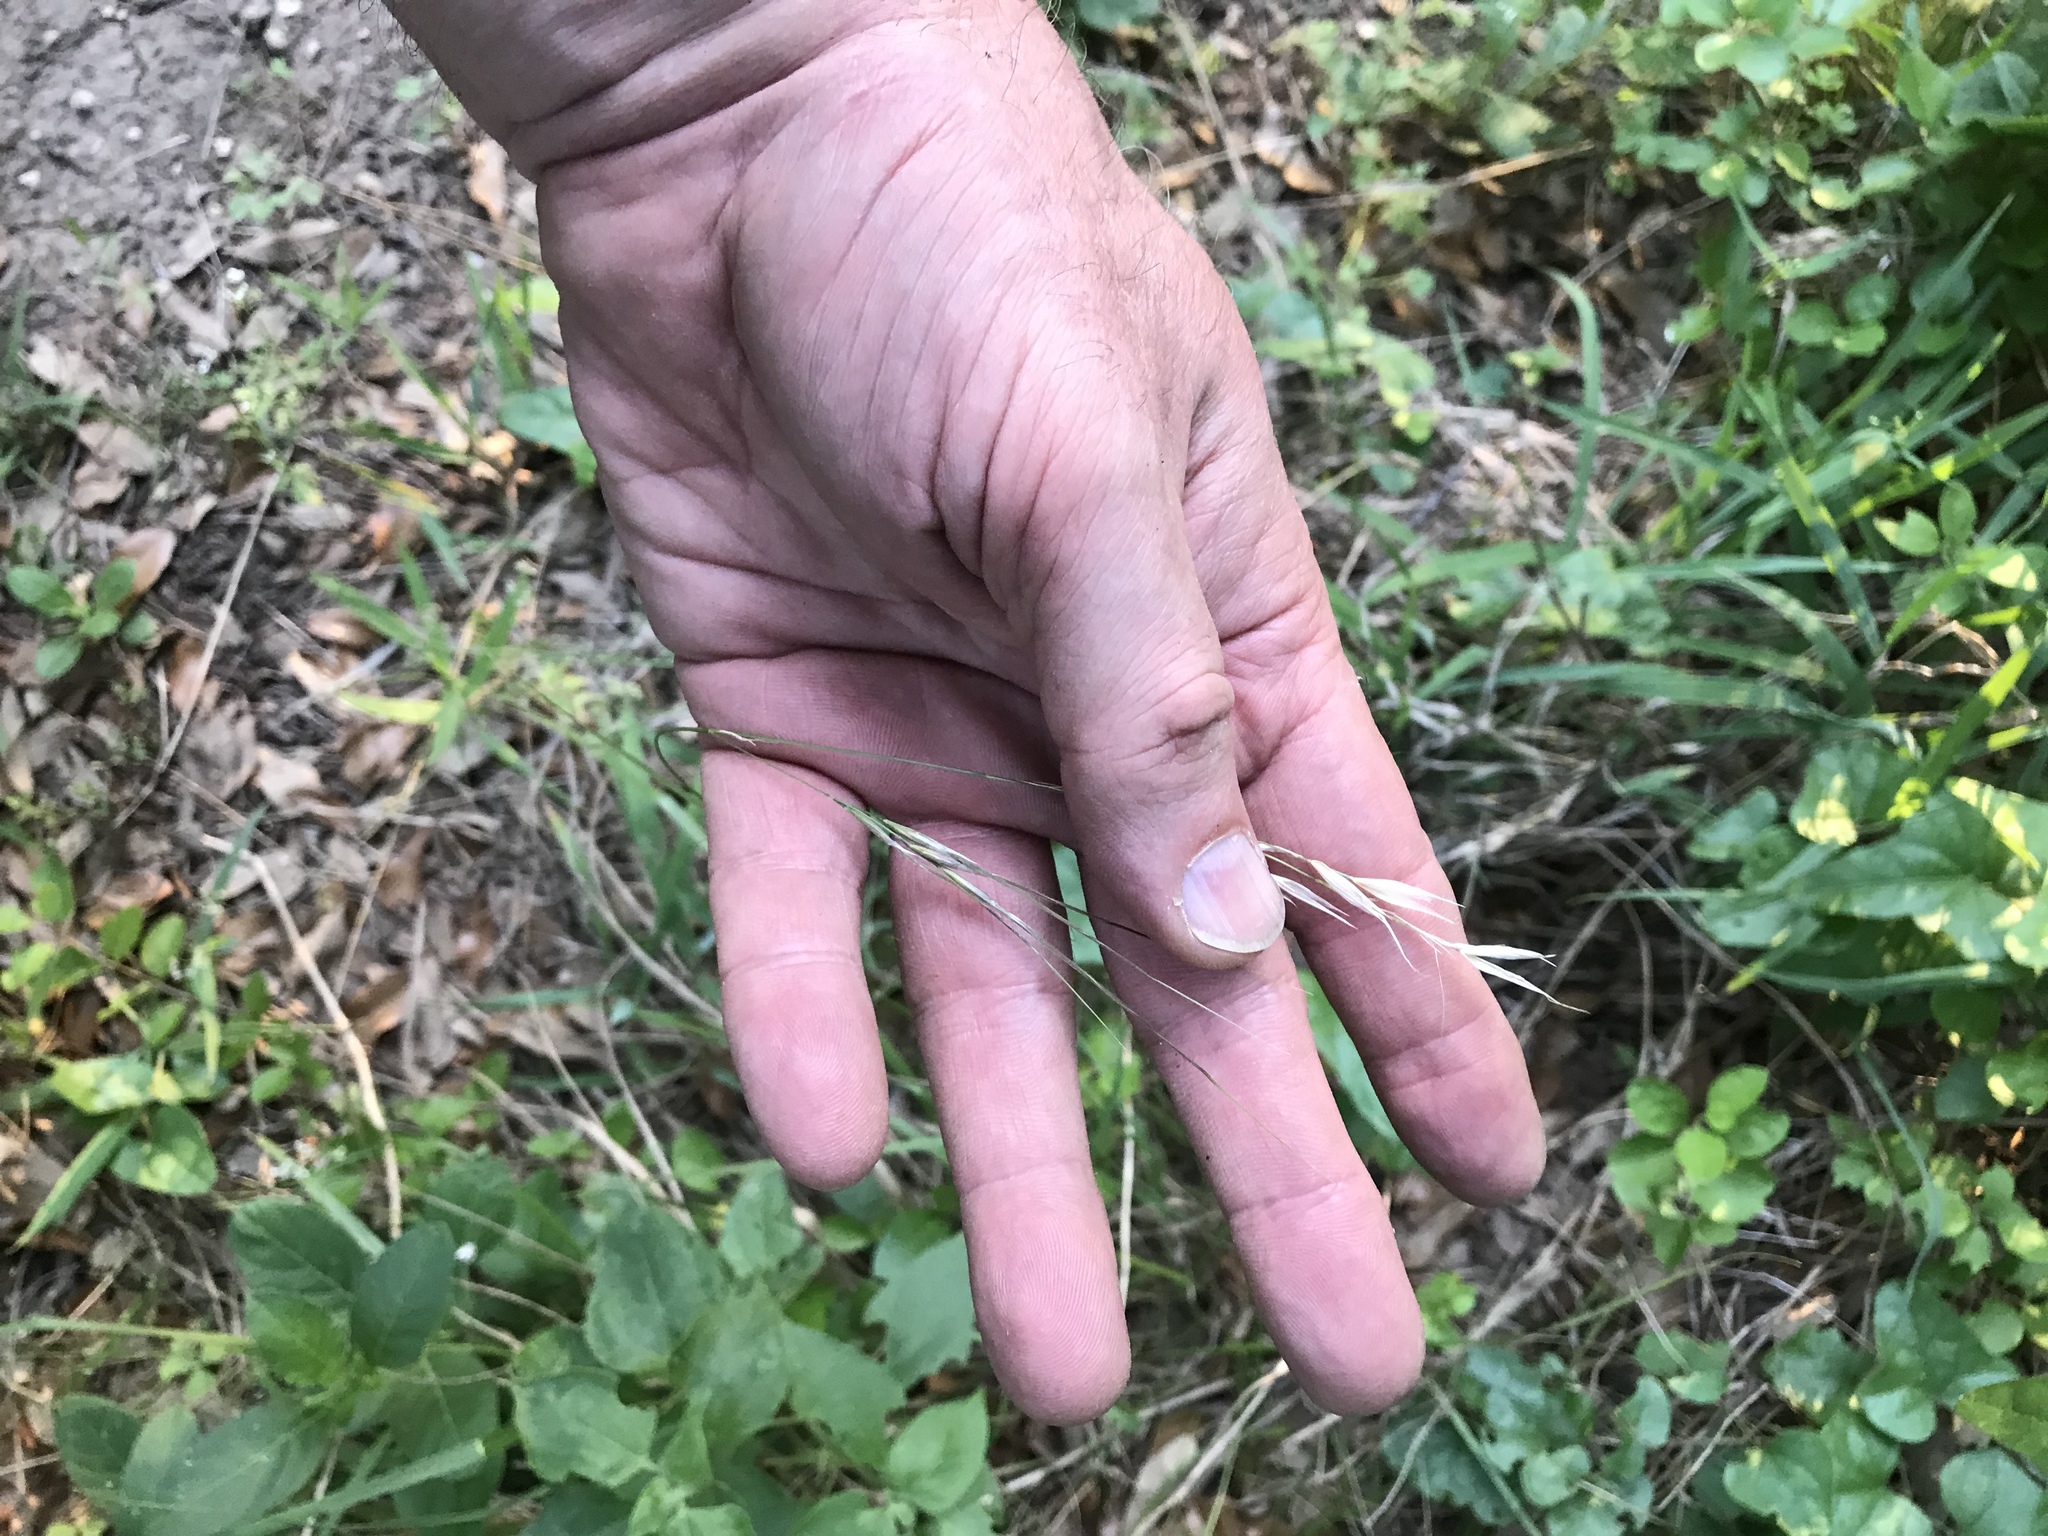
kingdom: Plantae
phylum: Tracheophyta
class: Liliopsida
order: Poales
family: Poaceae
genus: Nassella
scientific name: Nassella leucotricha
